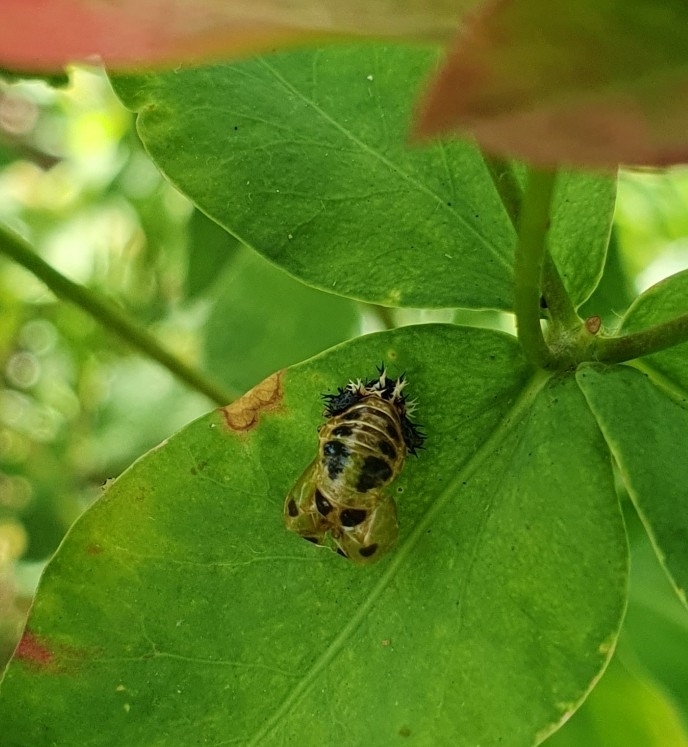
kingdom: Animalia
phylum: Arthropoda
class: Insecta
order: Coleoptera
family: Coccinellidae
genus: Harmonia
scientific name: Harmonia axyridis
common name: Harlequin ladybird
